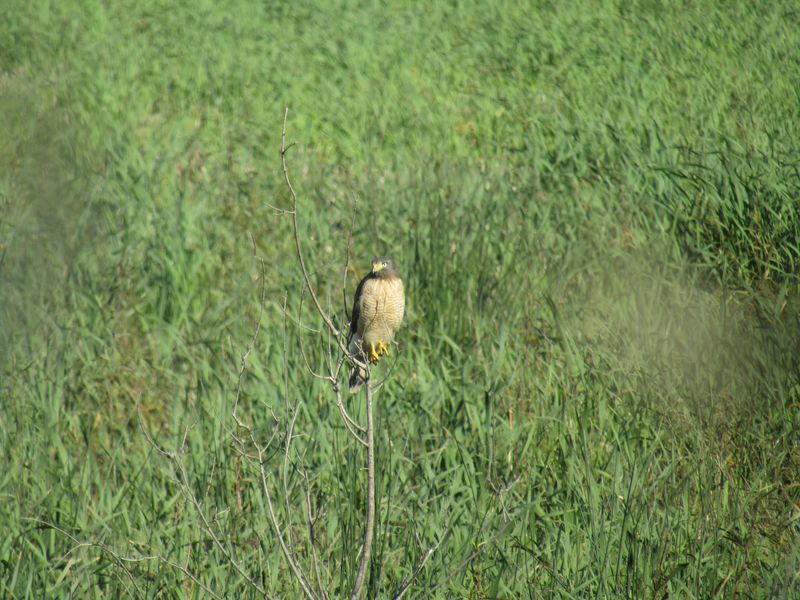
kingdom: Animalia
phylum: Chordata
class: Aves
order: Accipitriformes
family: Accipitridae
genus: Rupornis
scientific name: Rupornis magnirostris
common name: Roadside hawk
